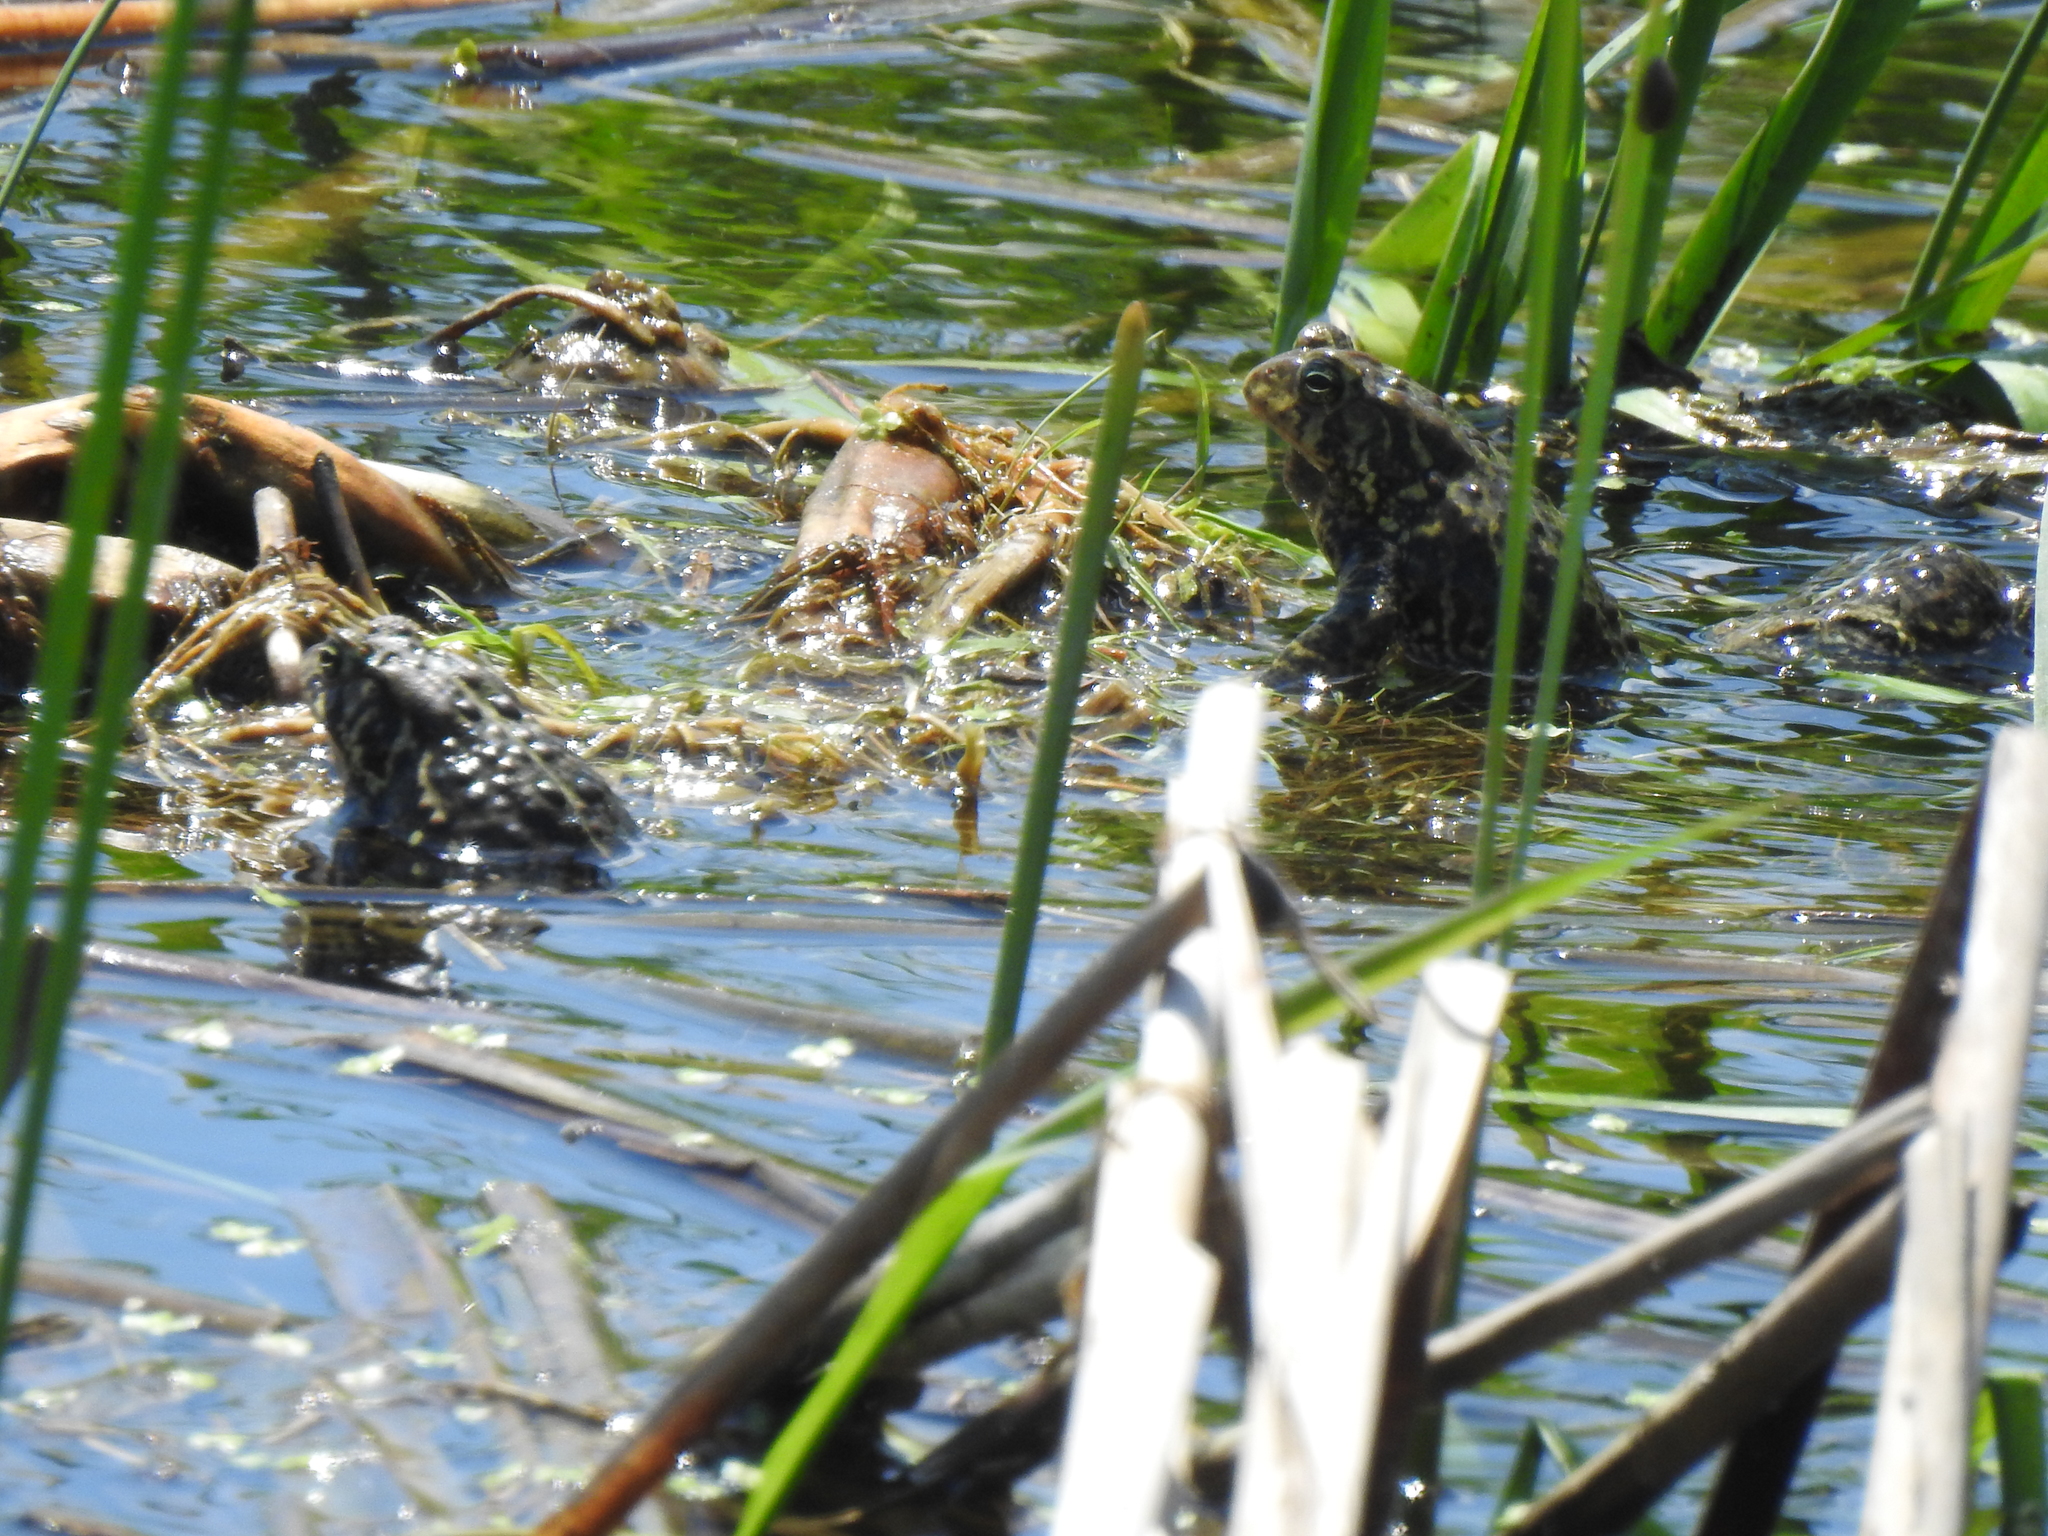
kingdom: Animalia
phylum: Chordata
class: Amphibia
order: Anura
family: Bufonidae
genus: Anaxyrus
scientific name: Anaxyrus americanus
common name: American toad
